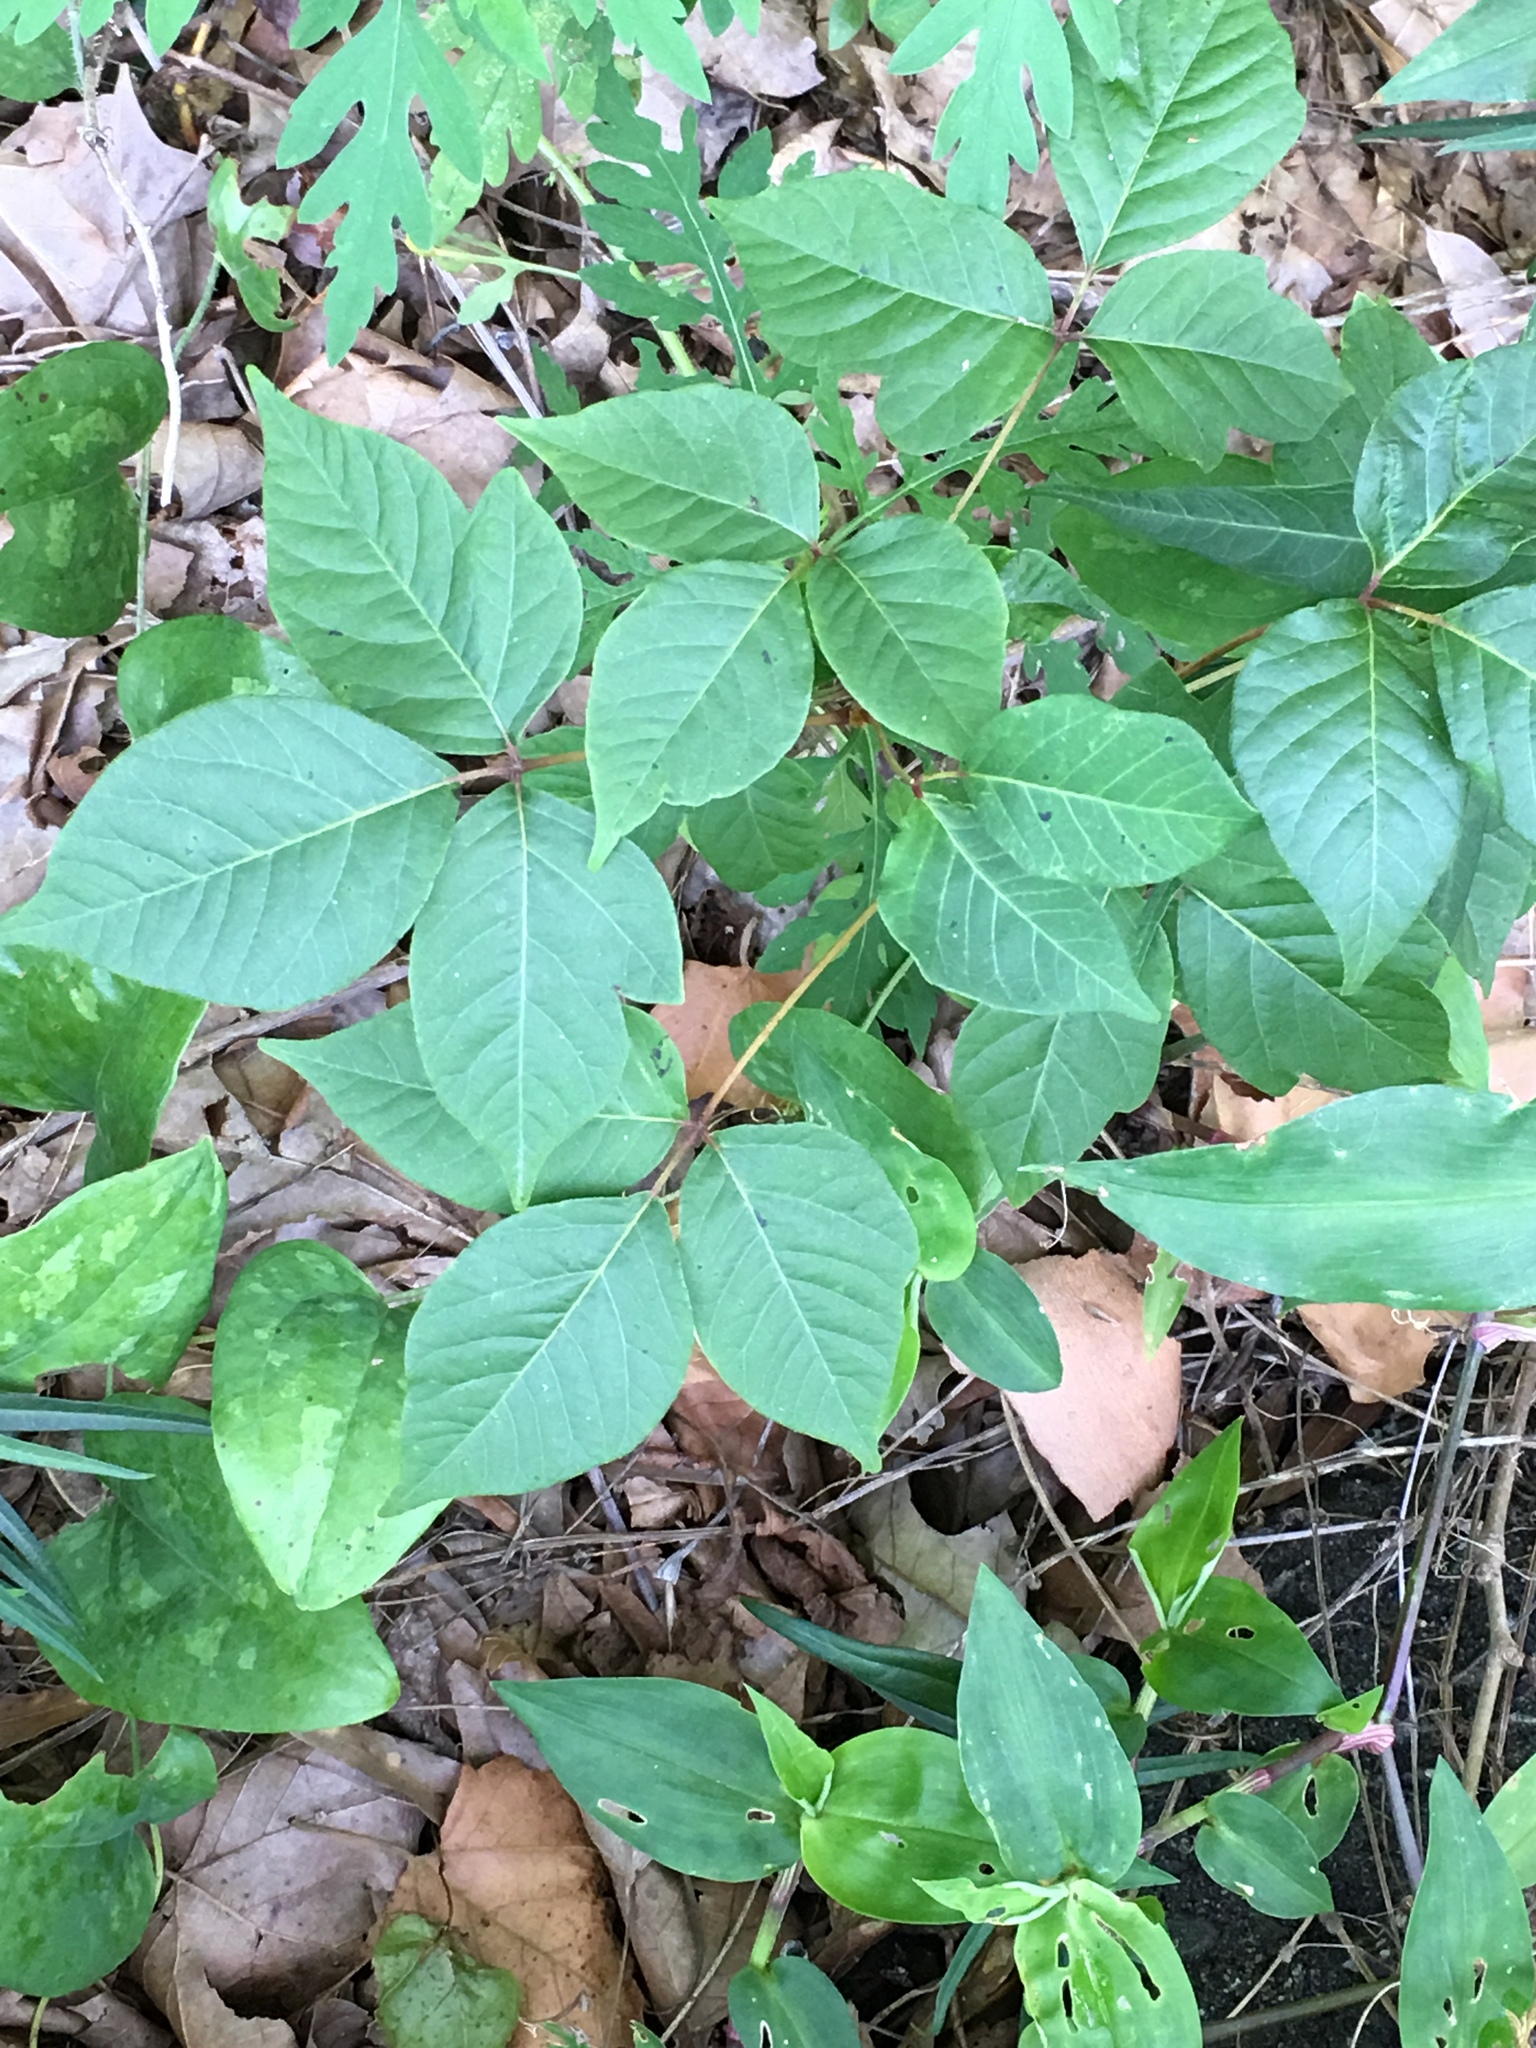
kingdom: Plantae
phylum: Tracheophyta
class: Magnoliopsida
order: Sapindales
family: Anacardiaceae
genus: Toxicodendron
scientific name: Toxicodendron radicans
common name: Poison ivy
